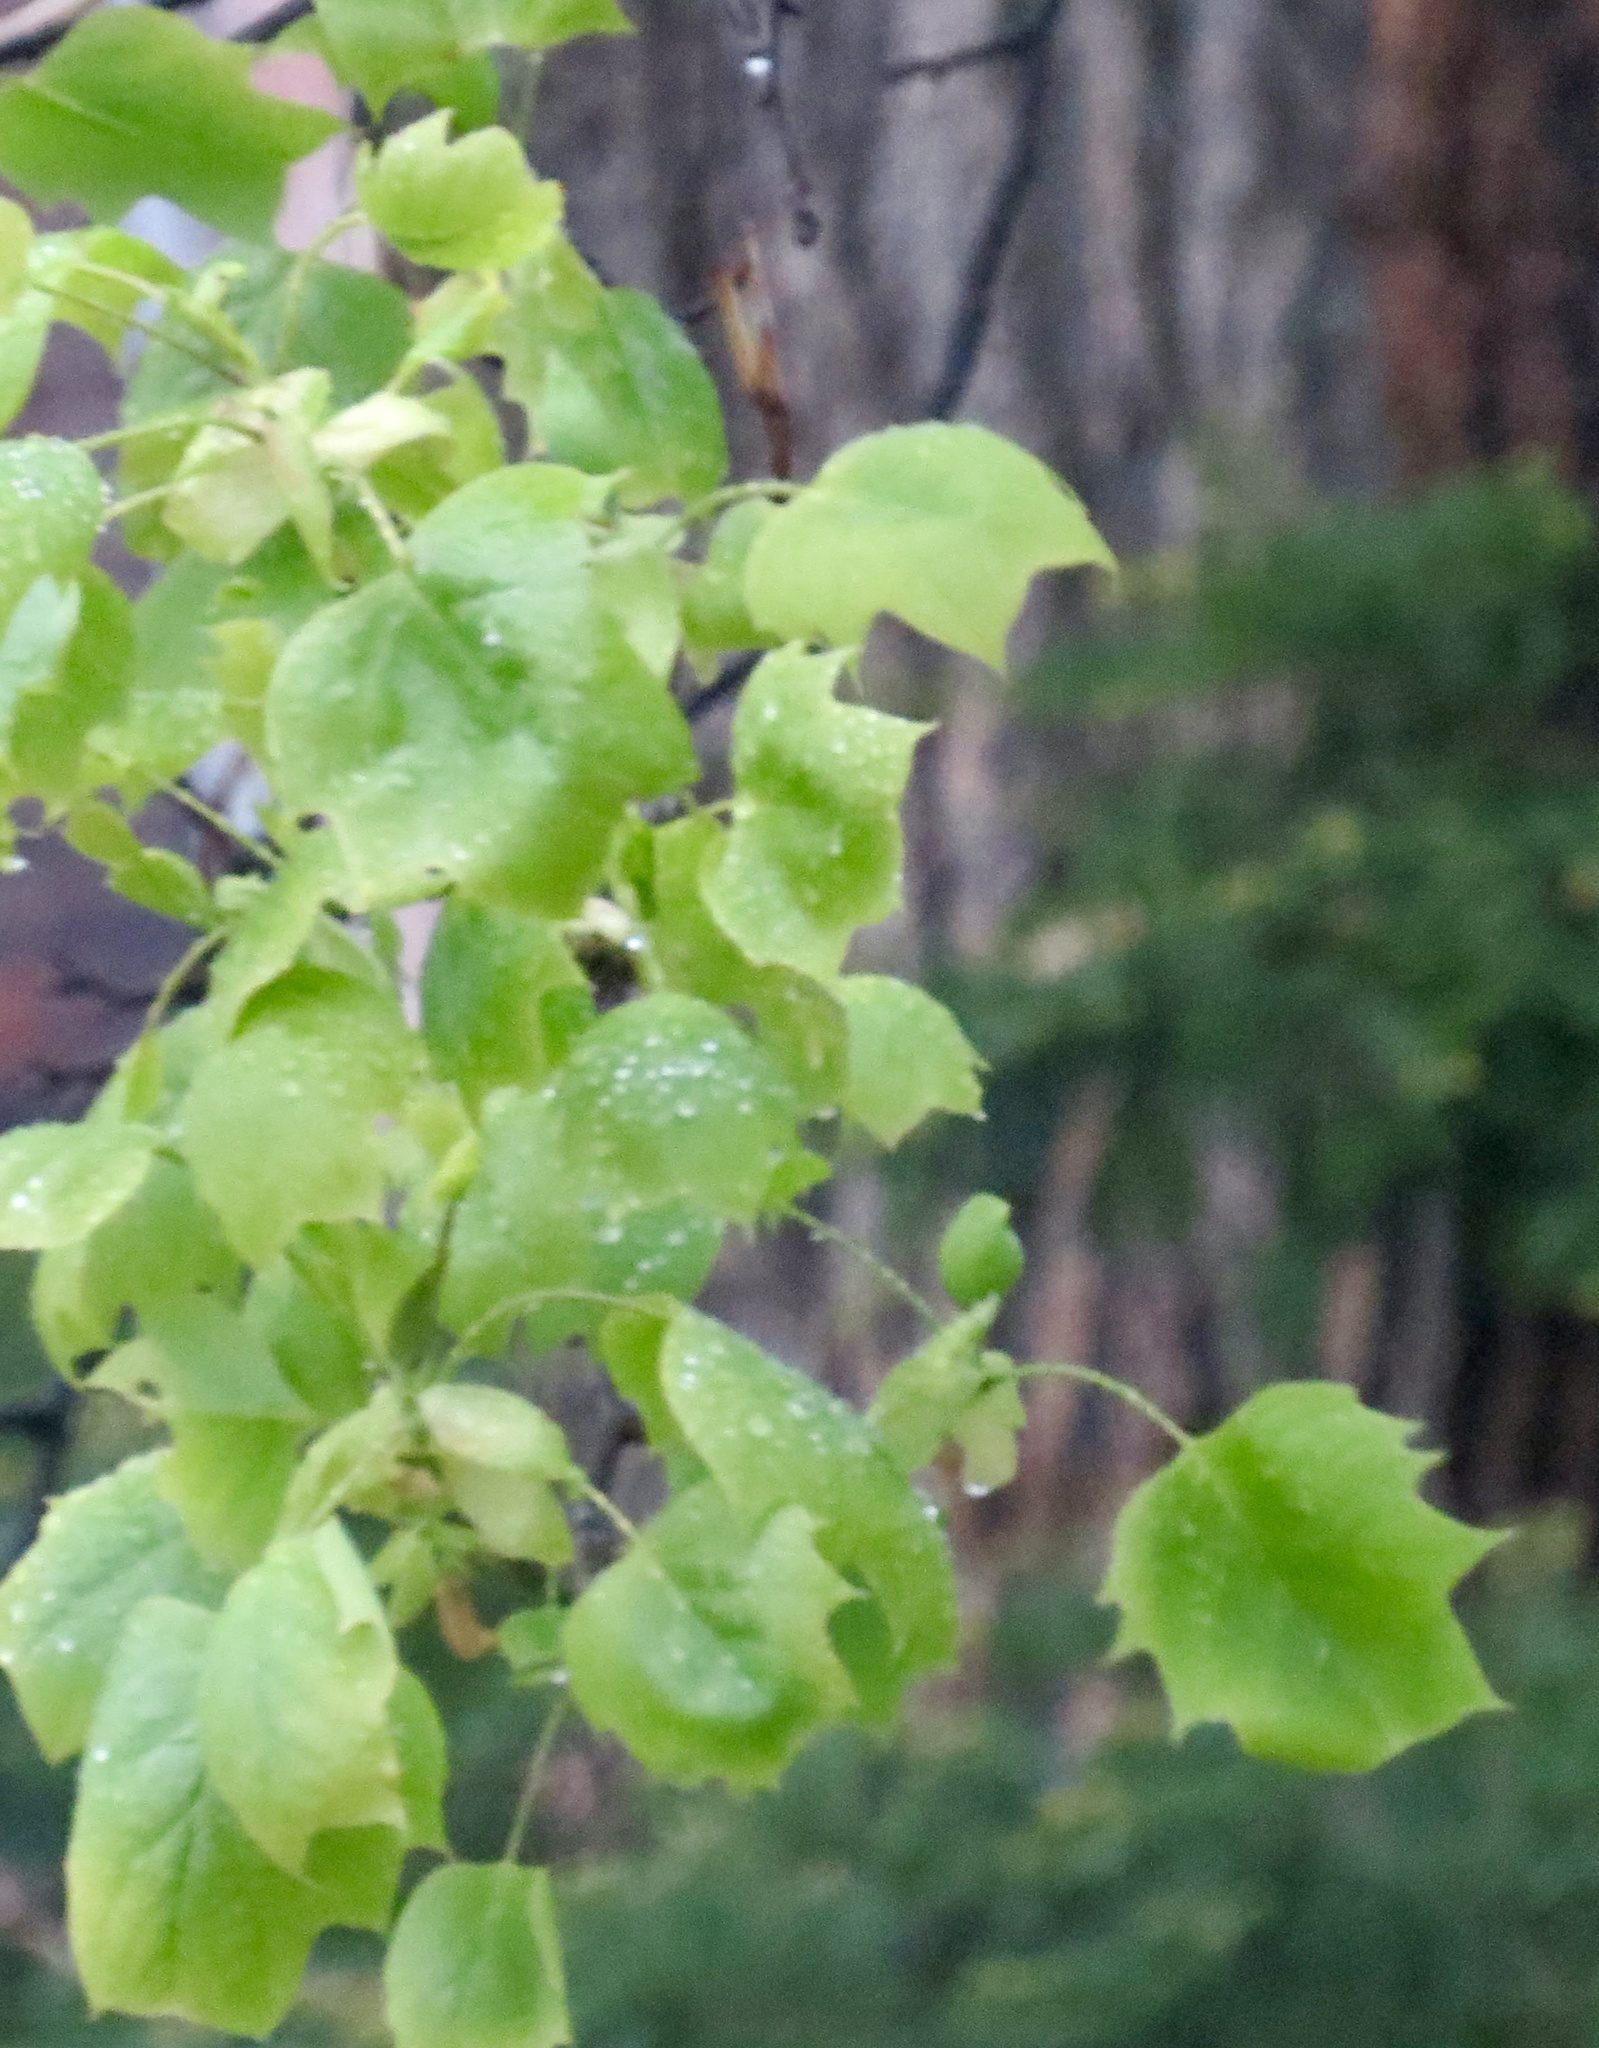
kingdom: Plantae
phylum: Tracheophyta
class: Magnoliopsida
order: Magnoliales
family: Magnoliaceae
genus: Liriodendron
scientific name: Liriodendron tulipifera
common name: Tulip tree
